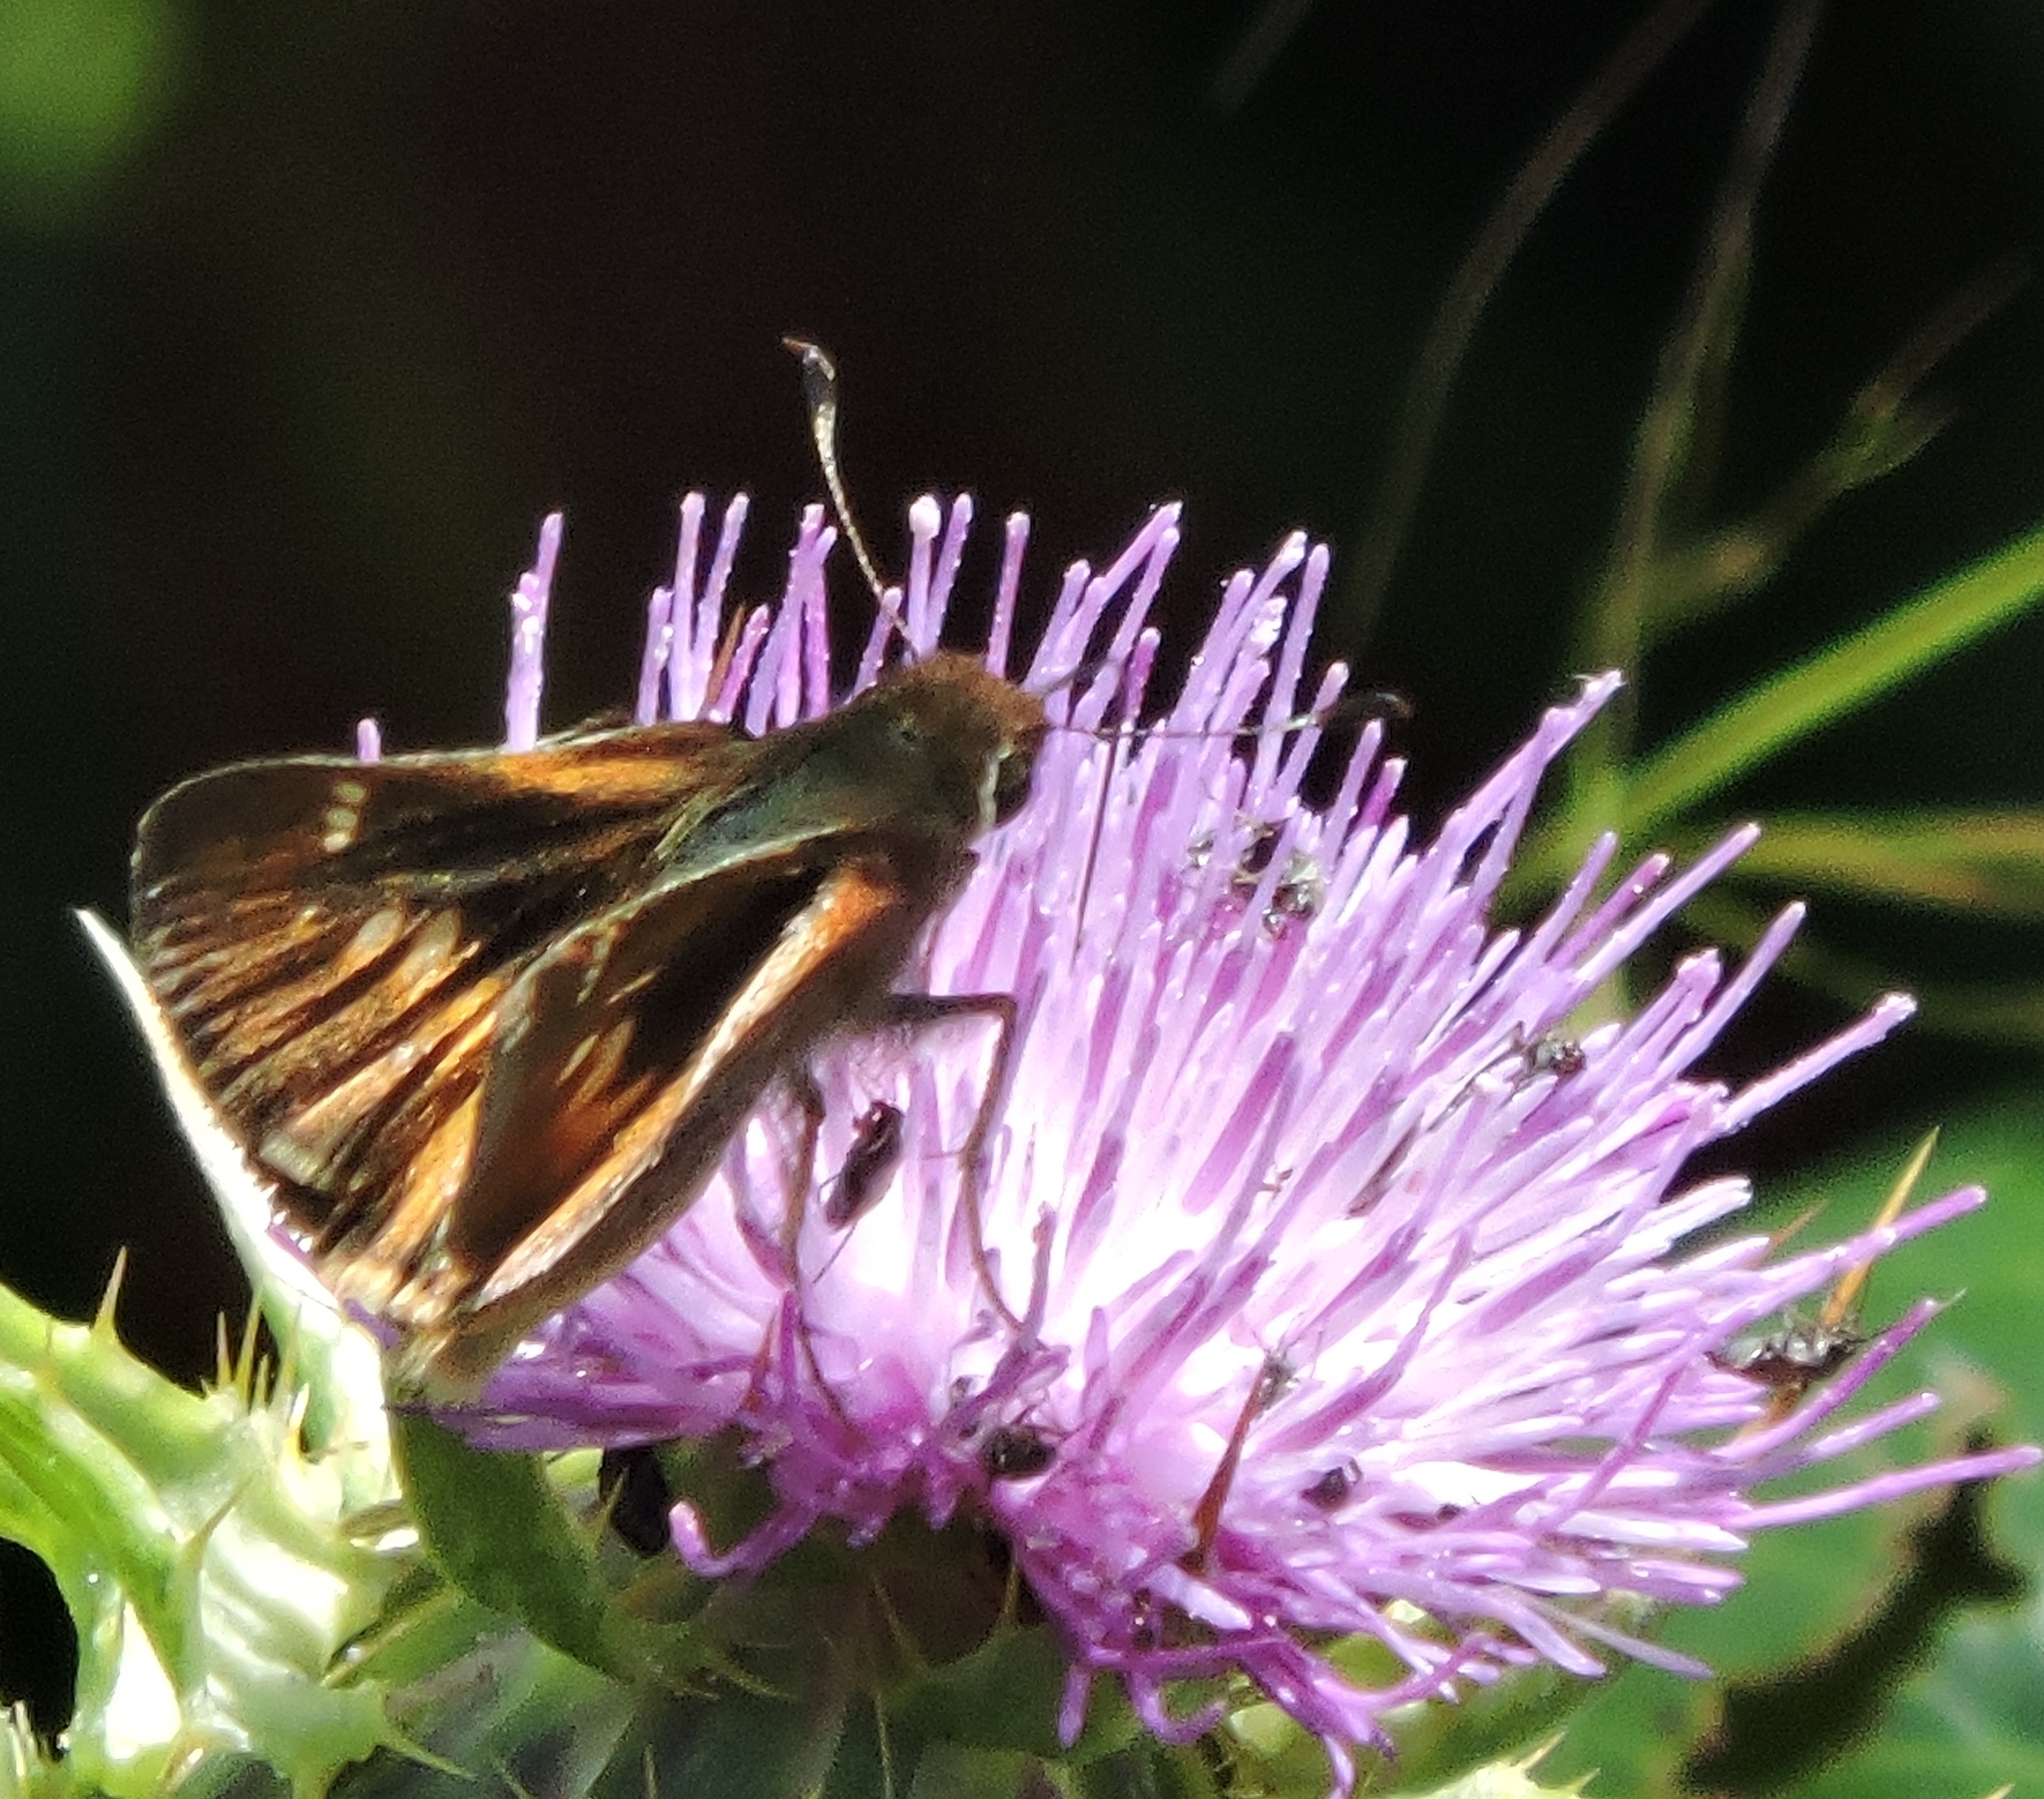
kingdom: Animalia
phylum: Arthropoda
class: Insecta
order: Lepidoptera
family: Hesperiidae
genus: Lon
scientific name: Lon melane
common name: Umber skipper
